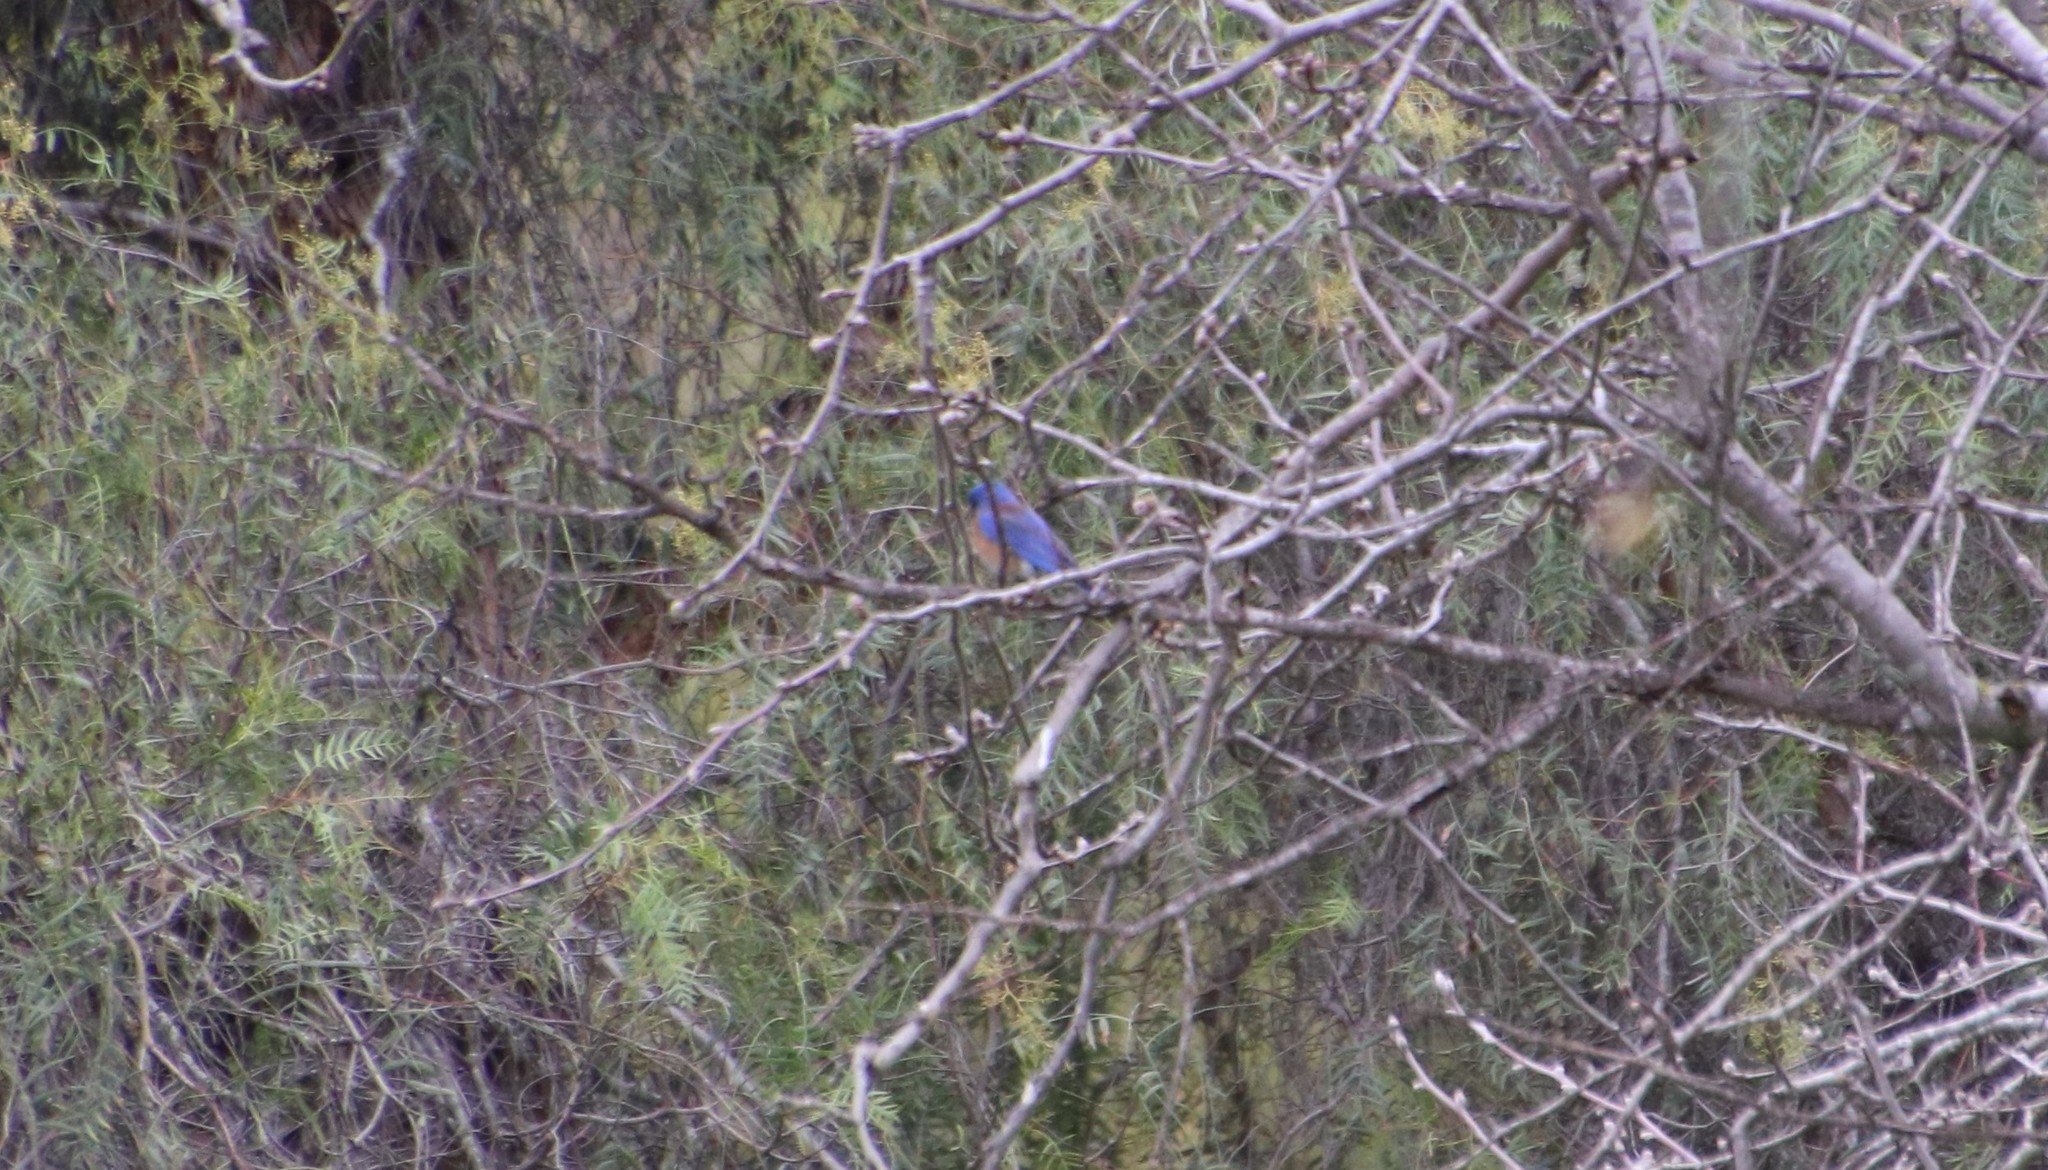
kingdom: Animalia
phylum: Chordata
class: Aves
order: Passeriformes
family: Turdidae
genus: Sialia
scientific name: Sialia mexicana
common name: Western bluebird
